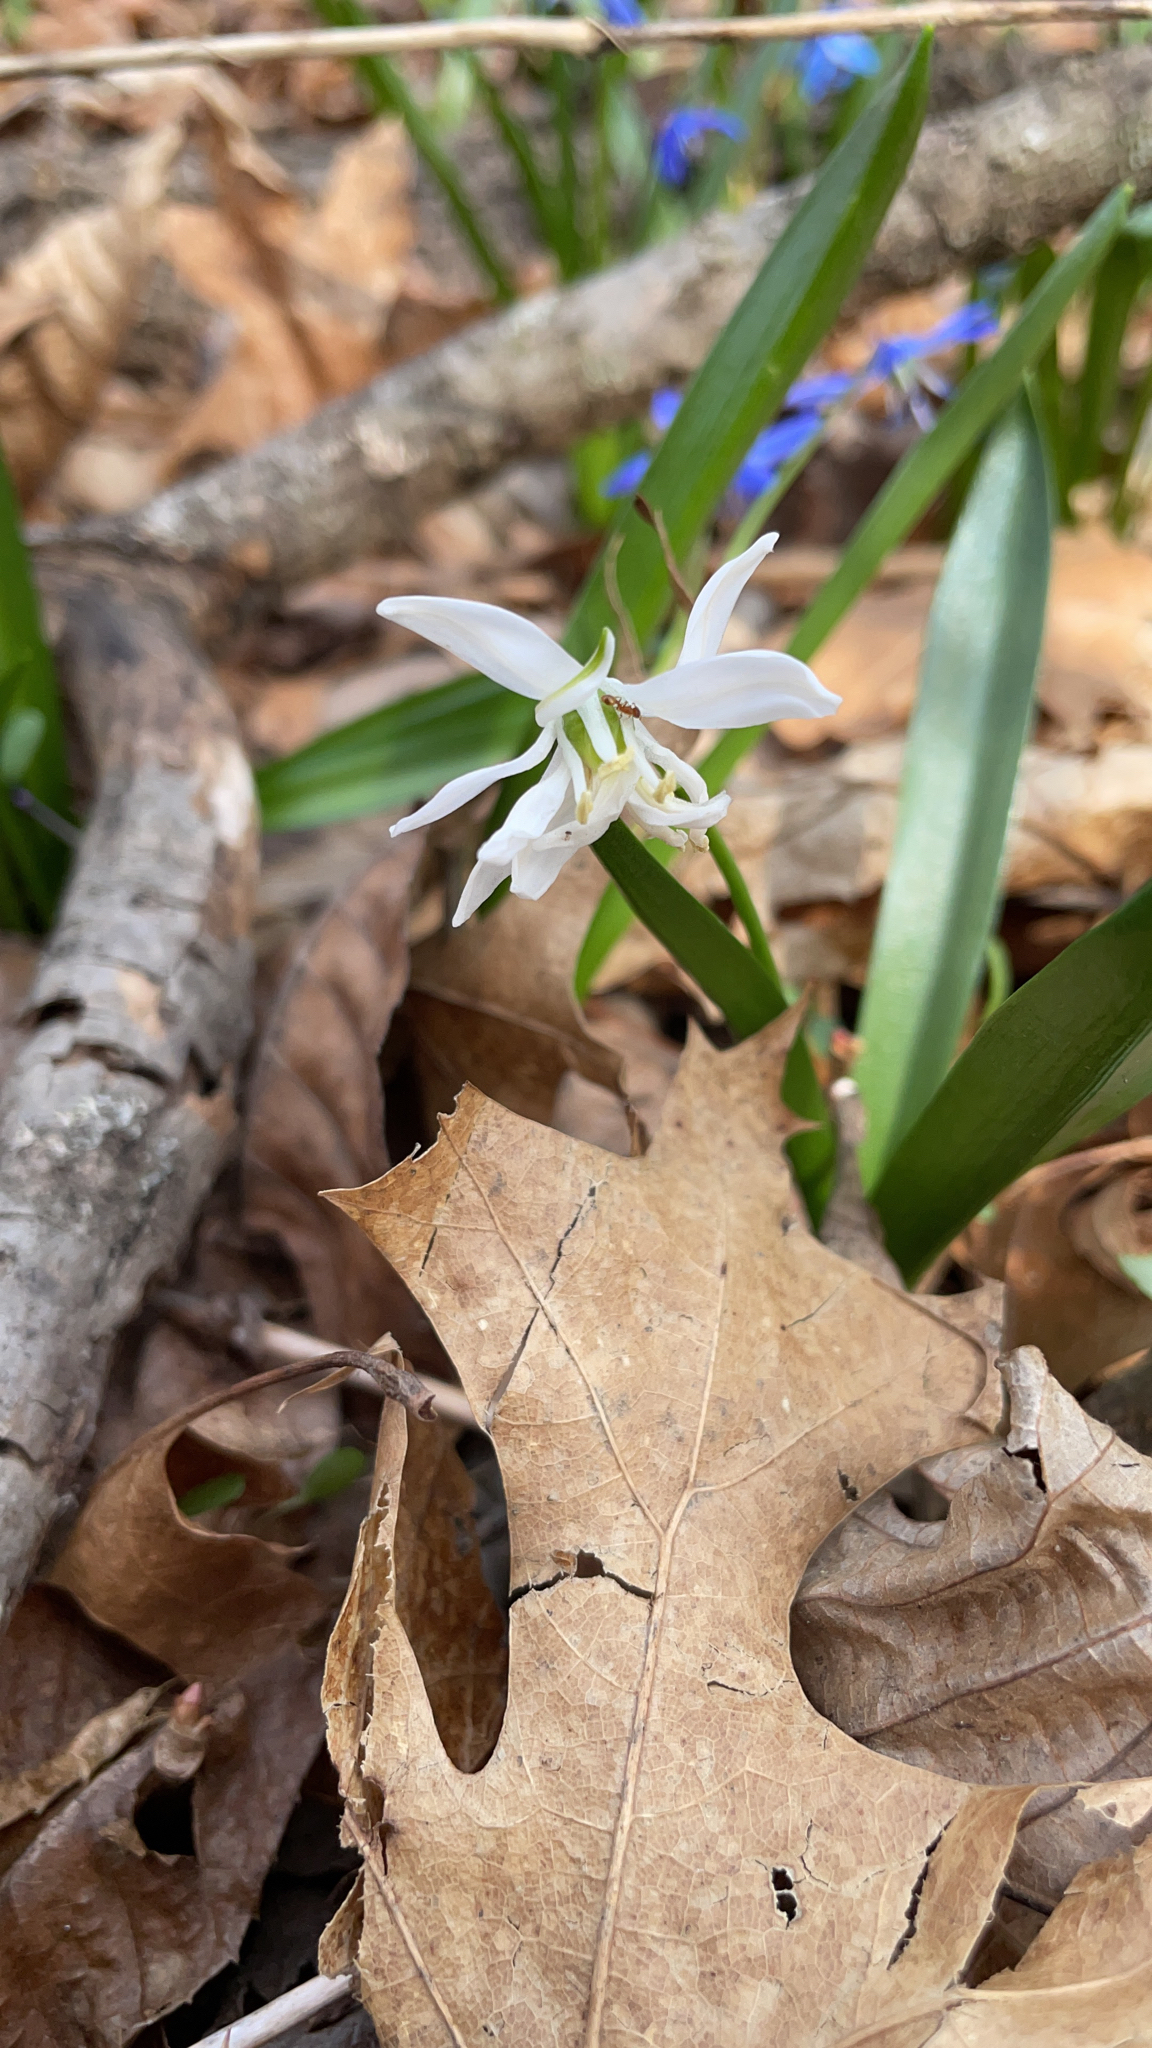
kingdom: Plantae
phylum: Tracheophyta
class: Liliopsida
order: Liliales
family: Liliaceae
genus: Erythronium
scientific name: Erythronium albidum
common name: White trout-lily
